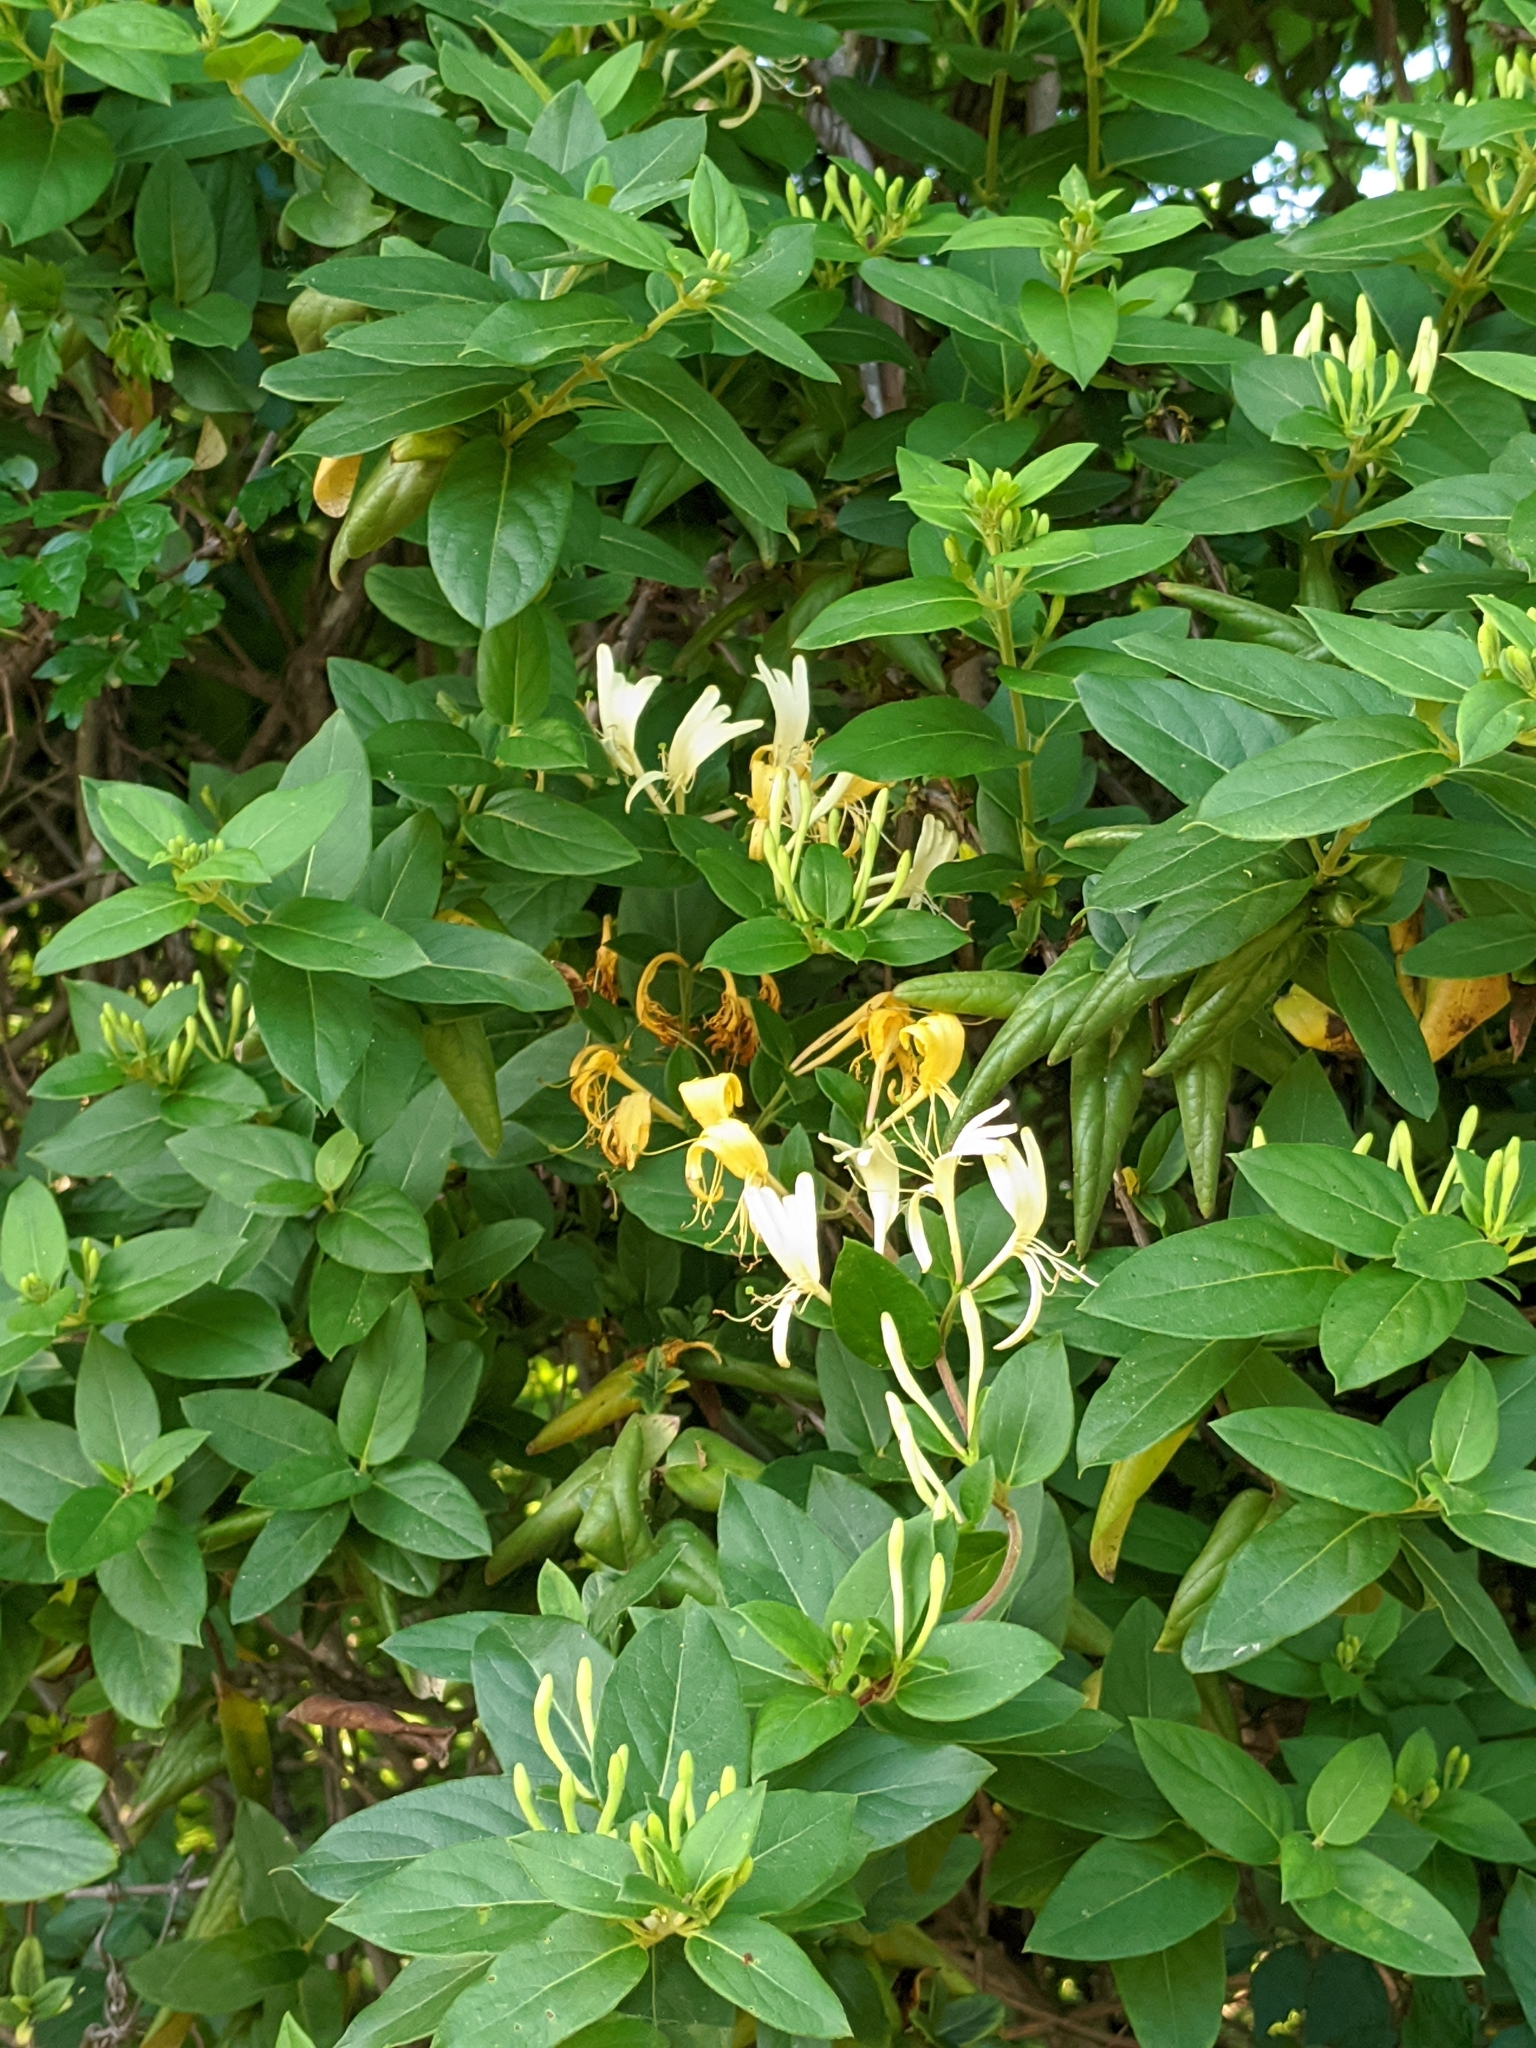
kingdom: Plantae
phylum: Tracheophyta
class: Magnoliopsida
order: Dipsacales
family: Caprifoliaceae
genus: Lonicera
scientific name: Lonicera japonica
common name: Japanese honeysuckle
